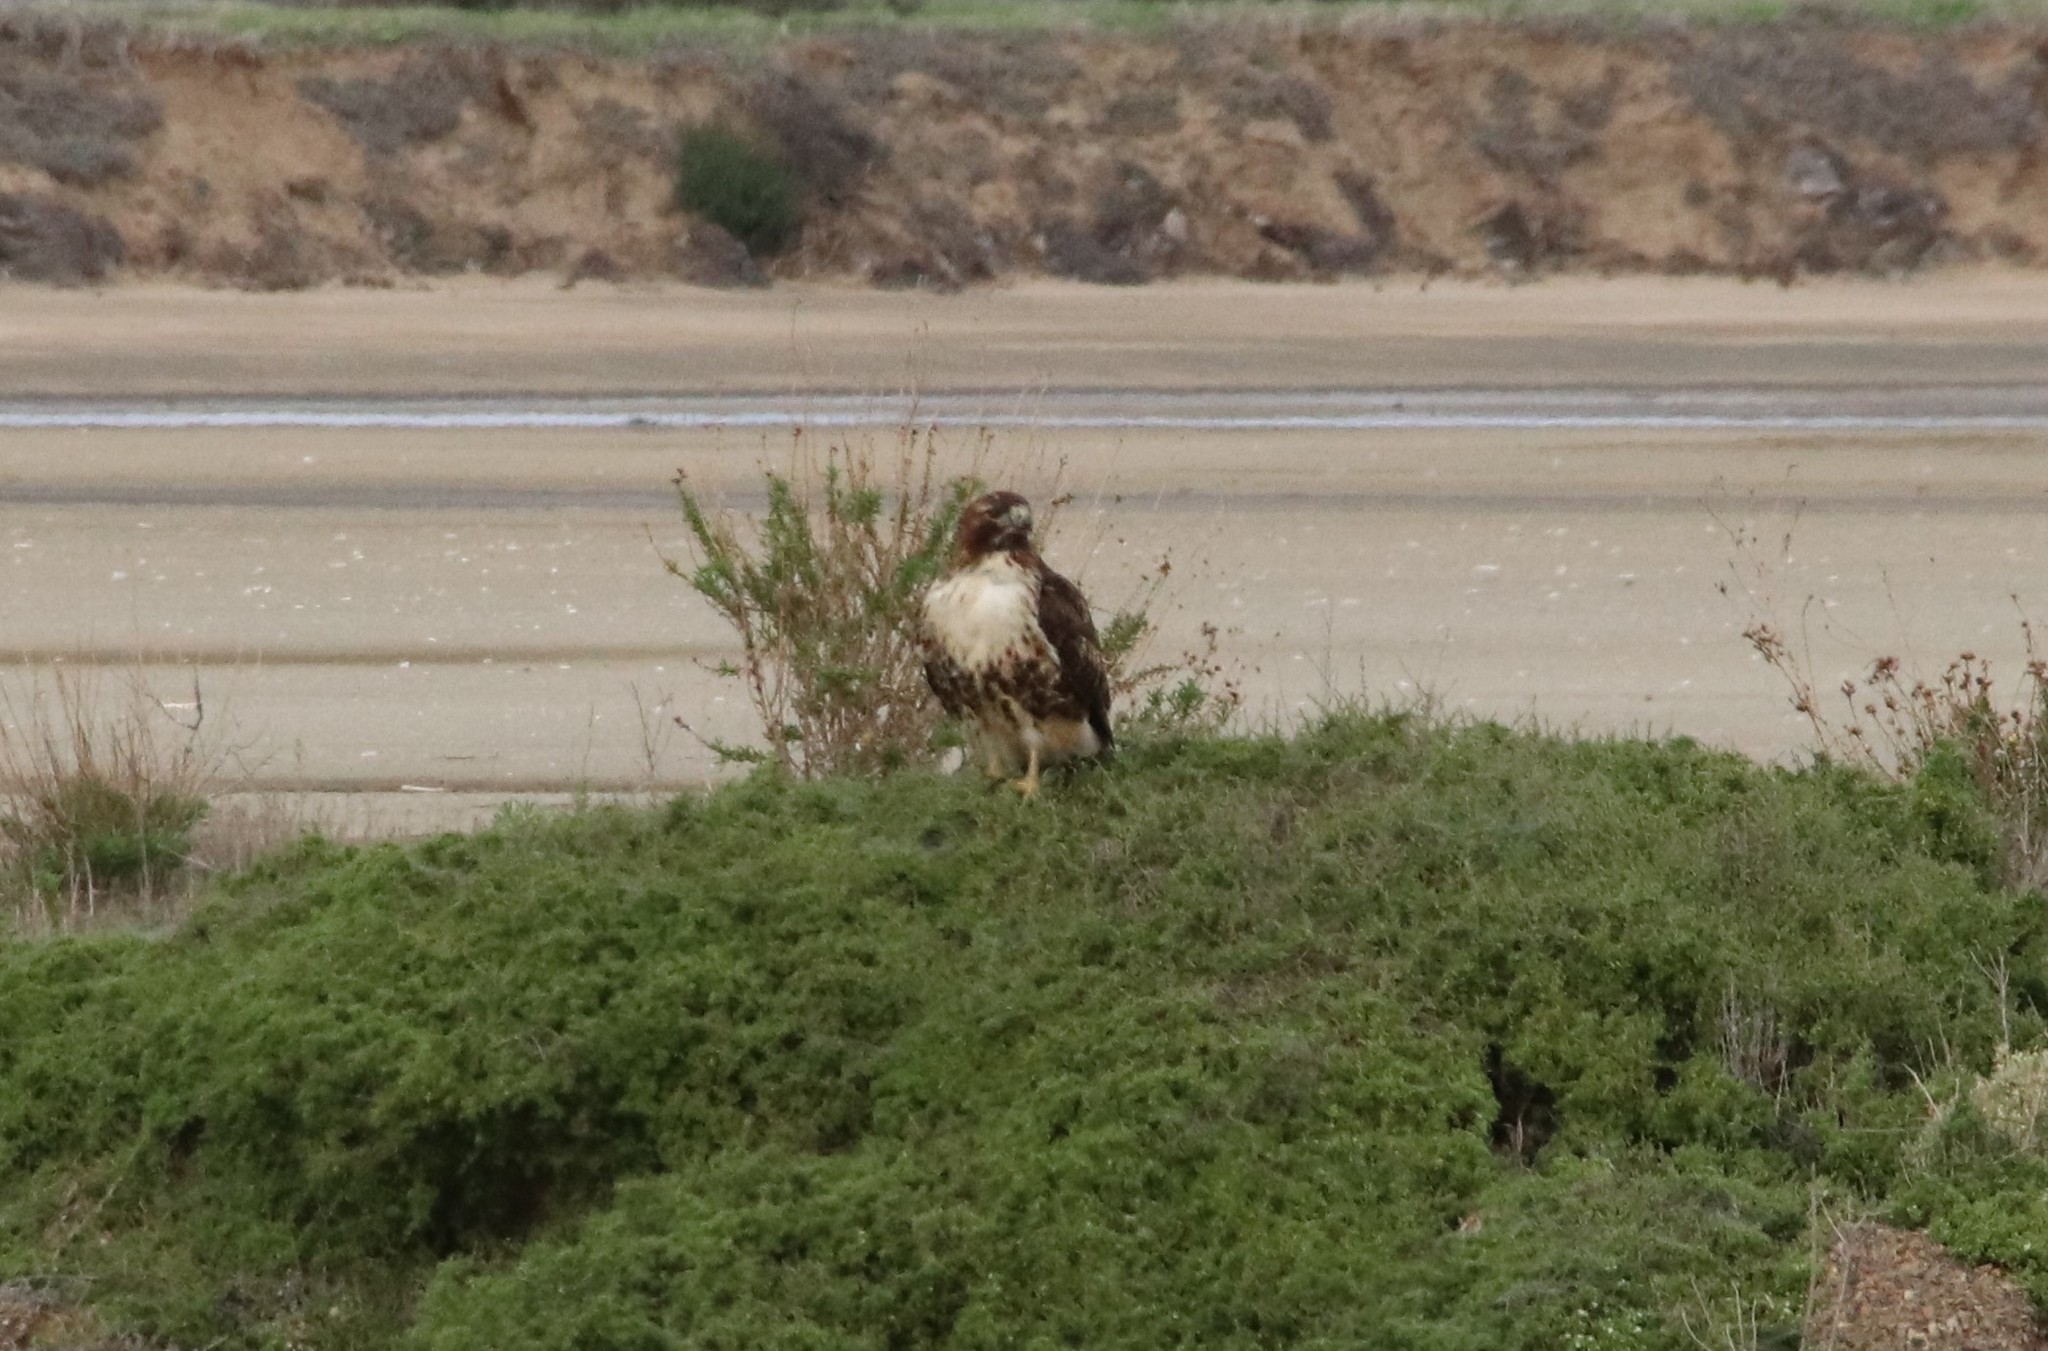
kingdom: Animalia
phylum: Chordata
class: Aves
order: Accipitriformes
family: Accipitridae
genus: Buteo
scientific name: Buteo jamaicensis
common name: Red-tailed hawk
